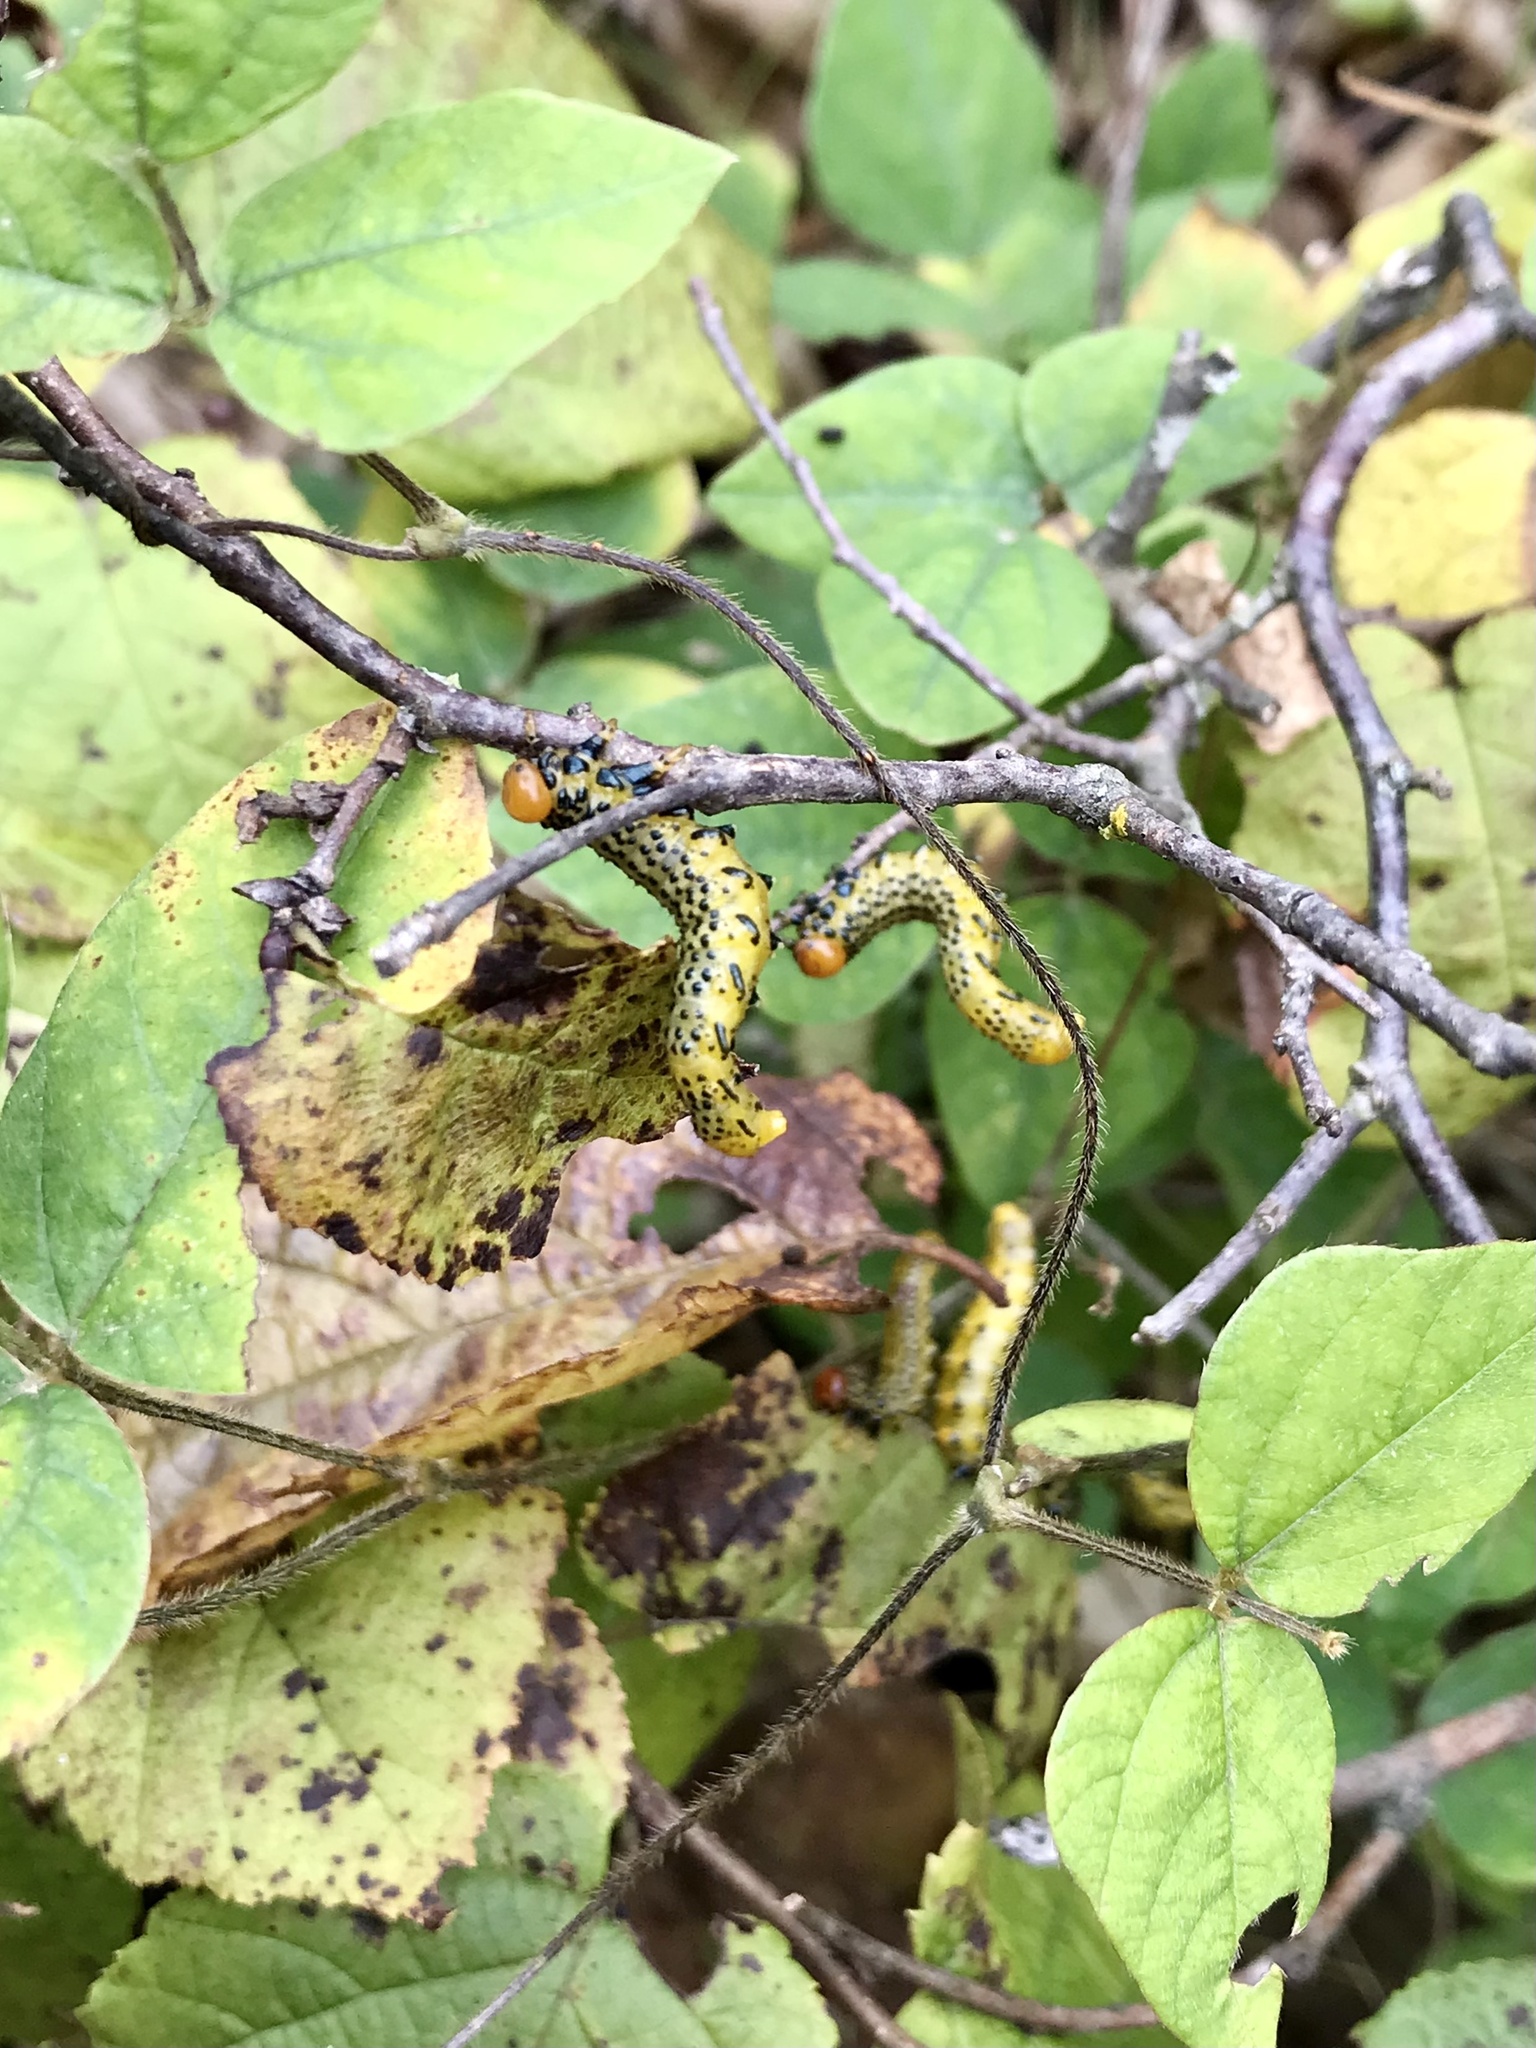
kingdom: Animalia
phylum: Arthropoda
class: Insecta
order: Hymenoptera
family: Argidae
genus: Arge
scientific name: Arge pectoralis
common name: Birch sawfly
